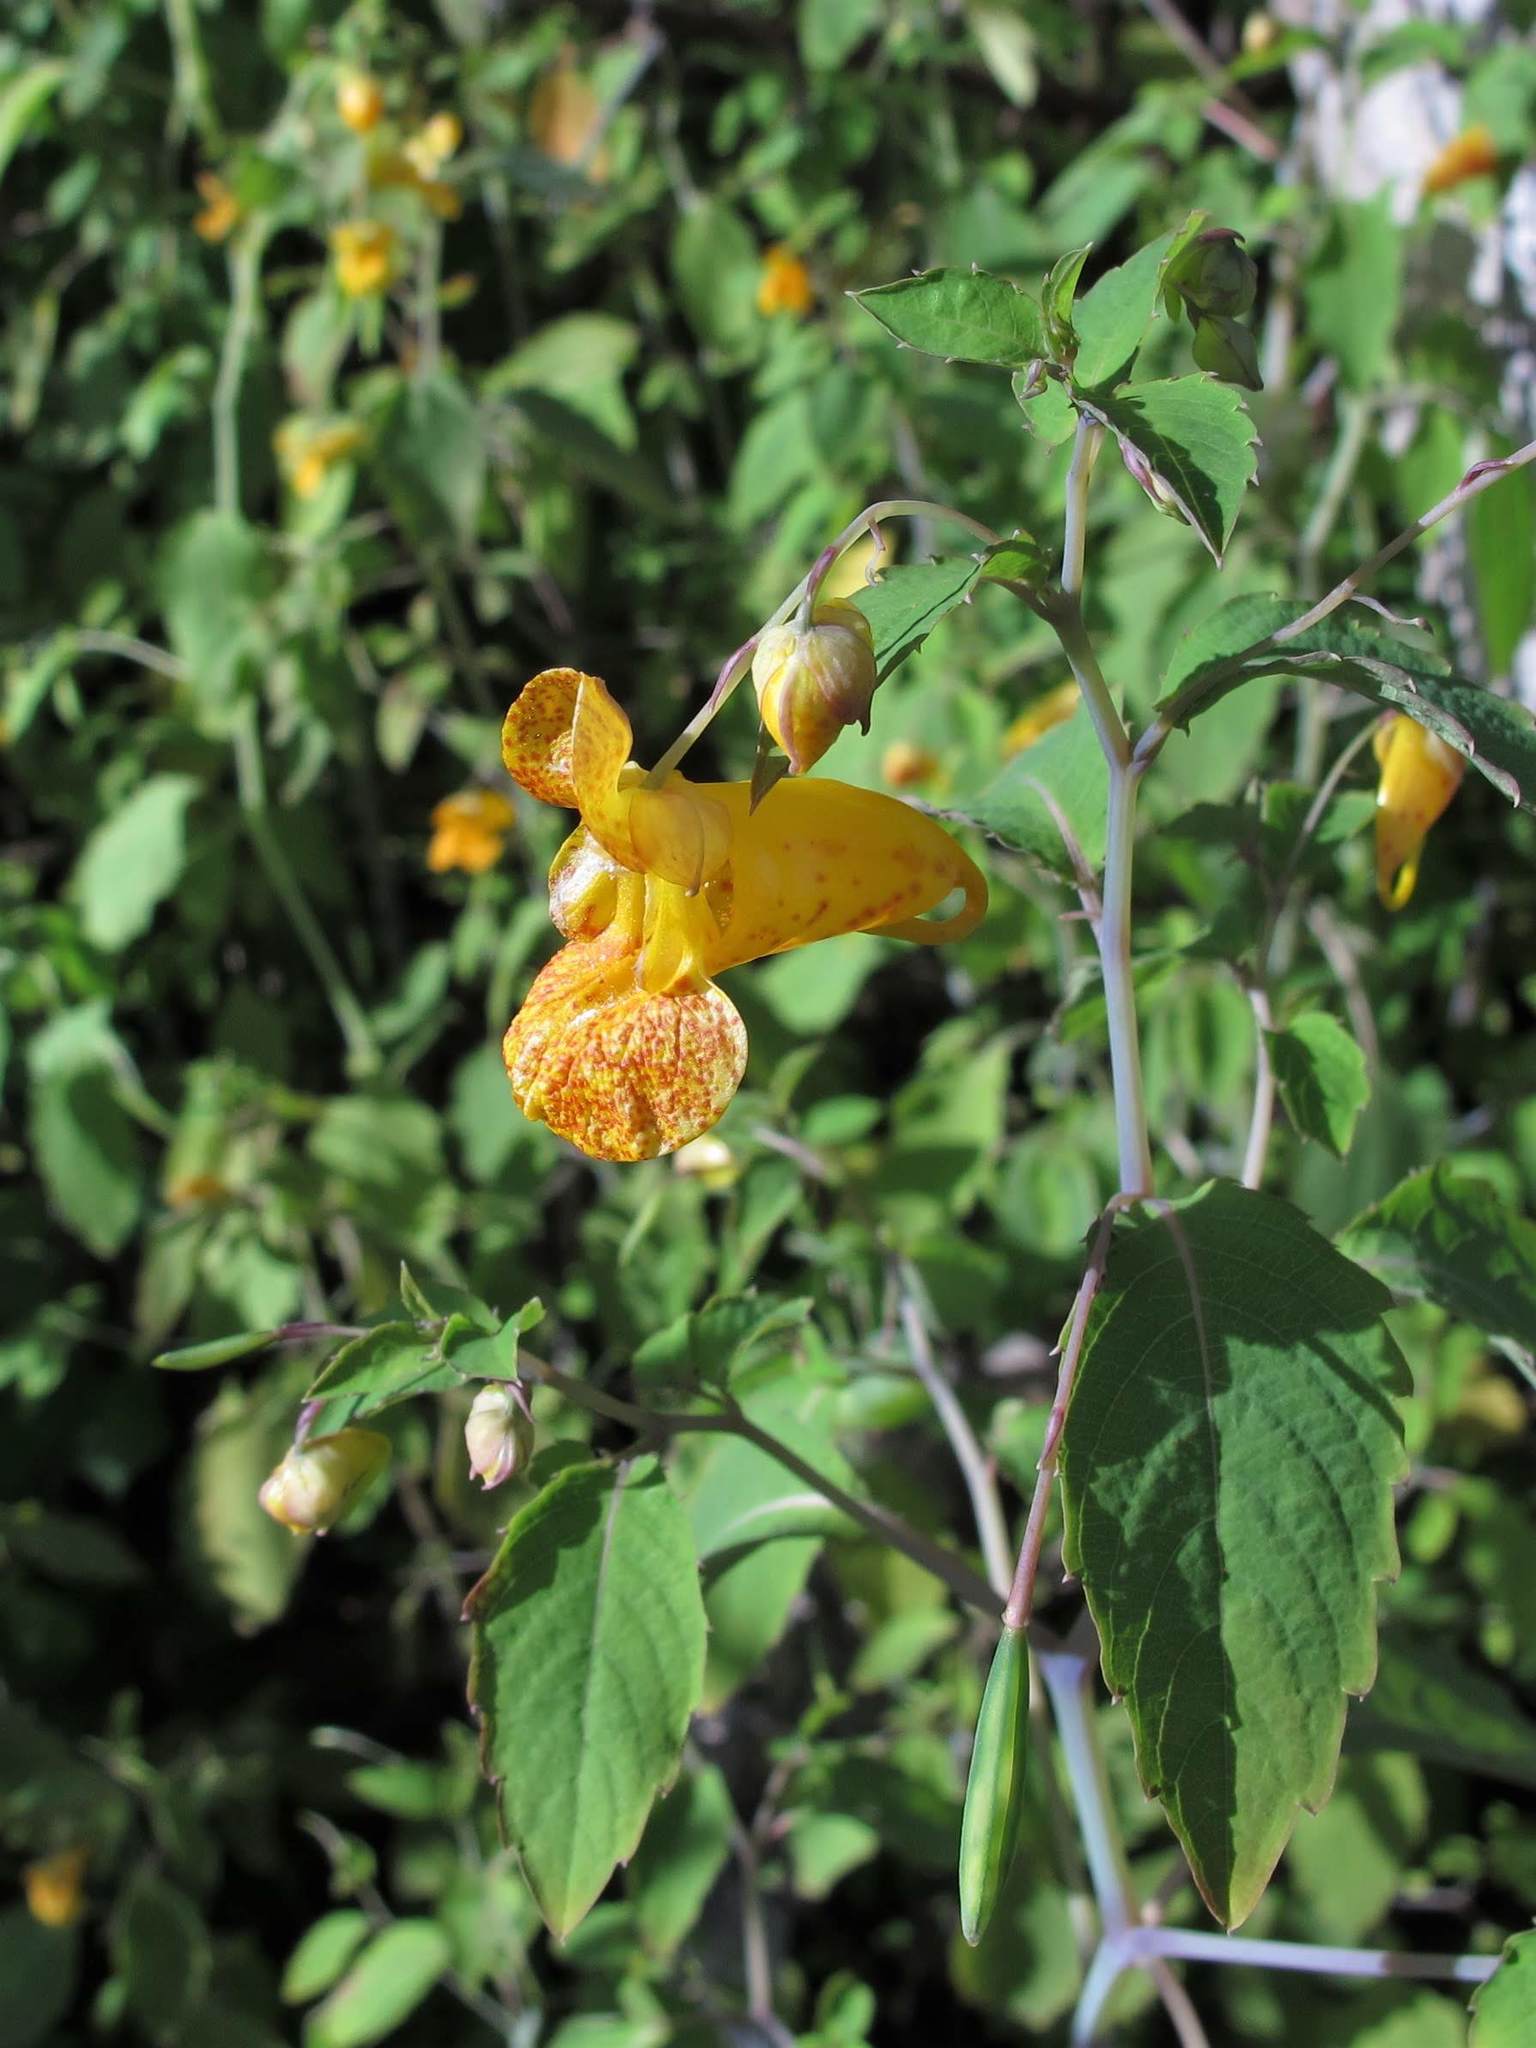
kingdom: Plantae
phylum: Tracheophyta
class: Magnoliopsida
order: Ericales
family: Balsaminaceae
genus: Impatiens
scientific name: Impatiens capensis
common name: Orange balsam
